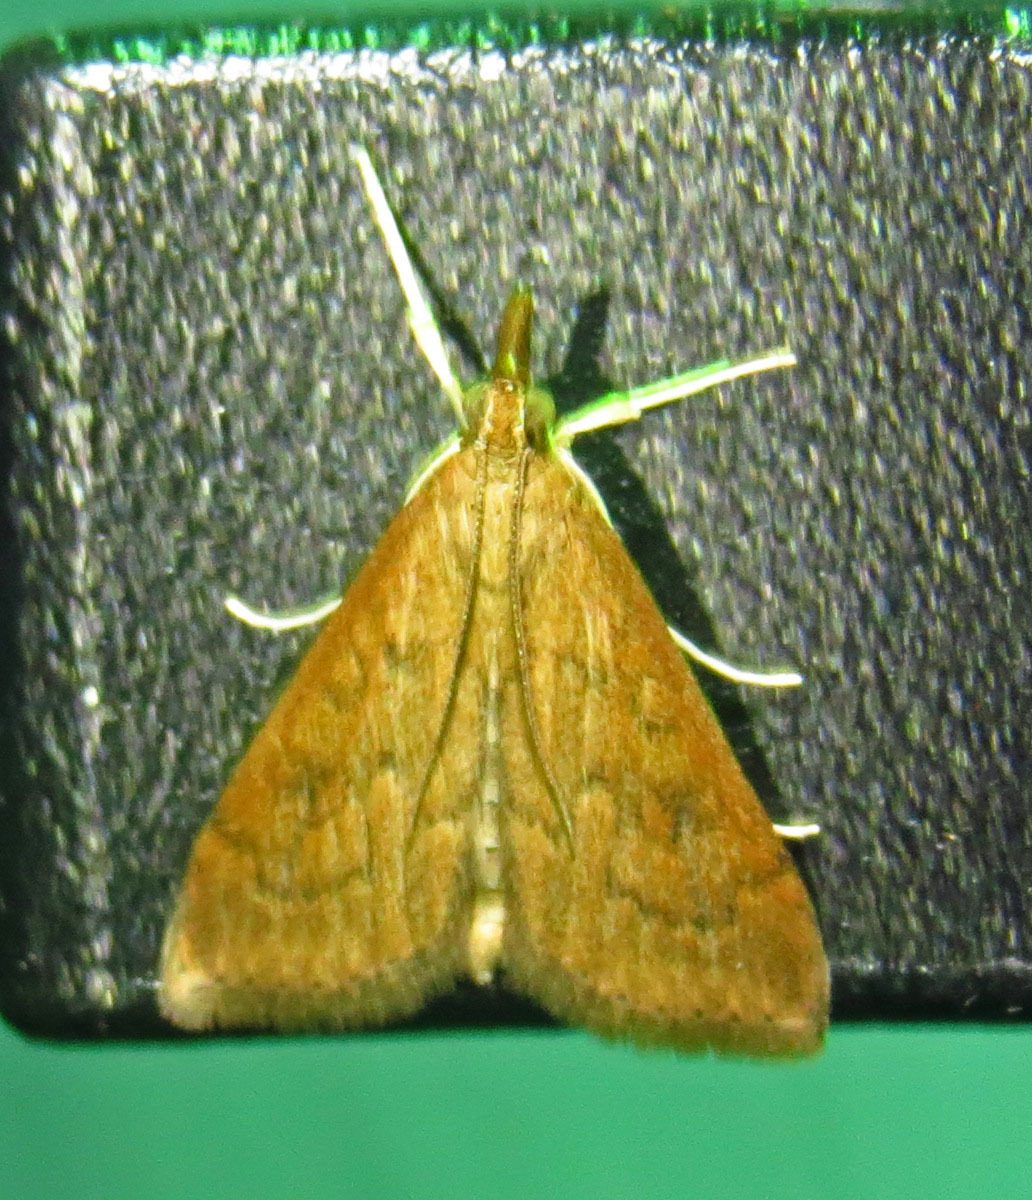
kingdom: Animalia
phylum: Arthropoda
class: Insecta
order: Lepidoptera
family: Crambidae
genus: Udea
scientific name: Udea rubigalis
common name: Celery leaftier moth
